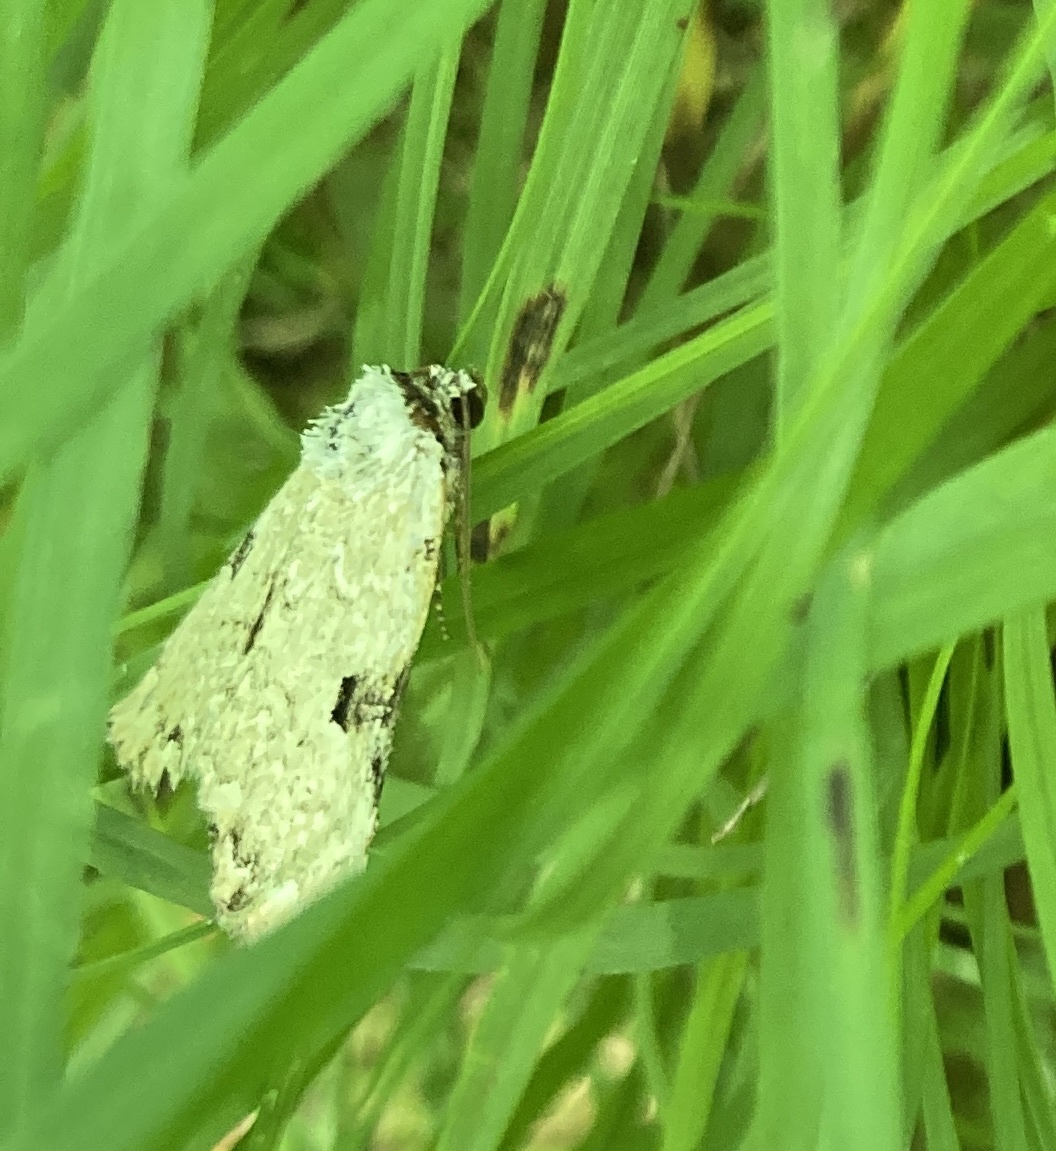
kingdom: Animalia
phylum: Arthropoda
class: Insecta
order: Lepidoptera
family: Noctuidae
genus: Leuconycta
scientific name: Leuconycta diphteroides
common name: Green leuconycta moth
